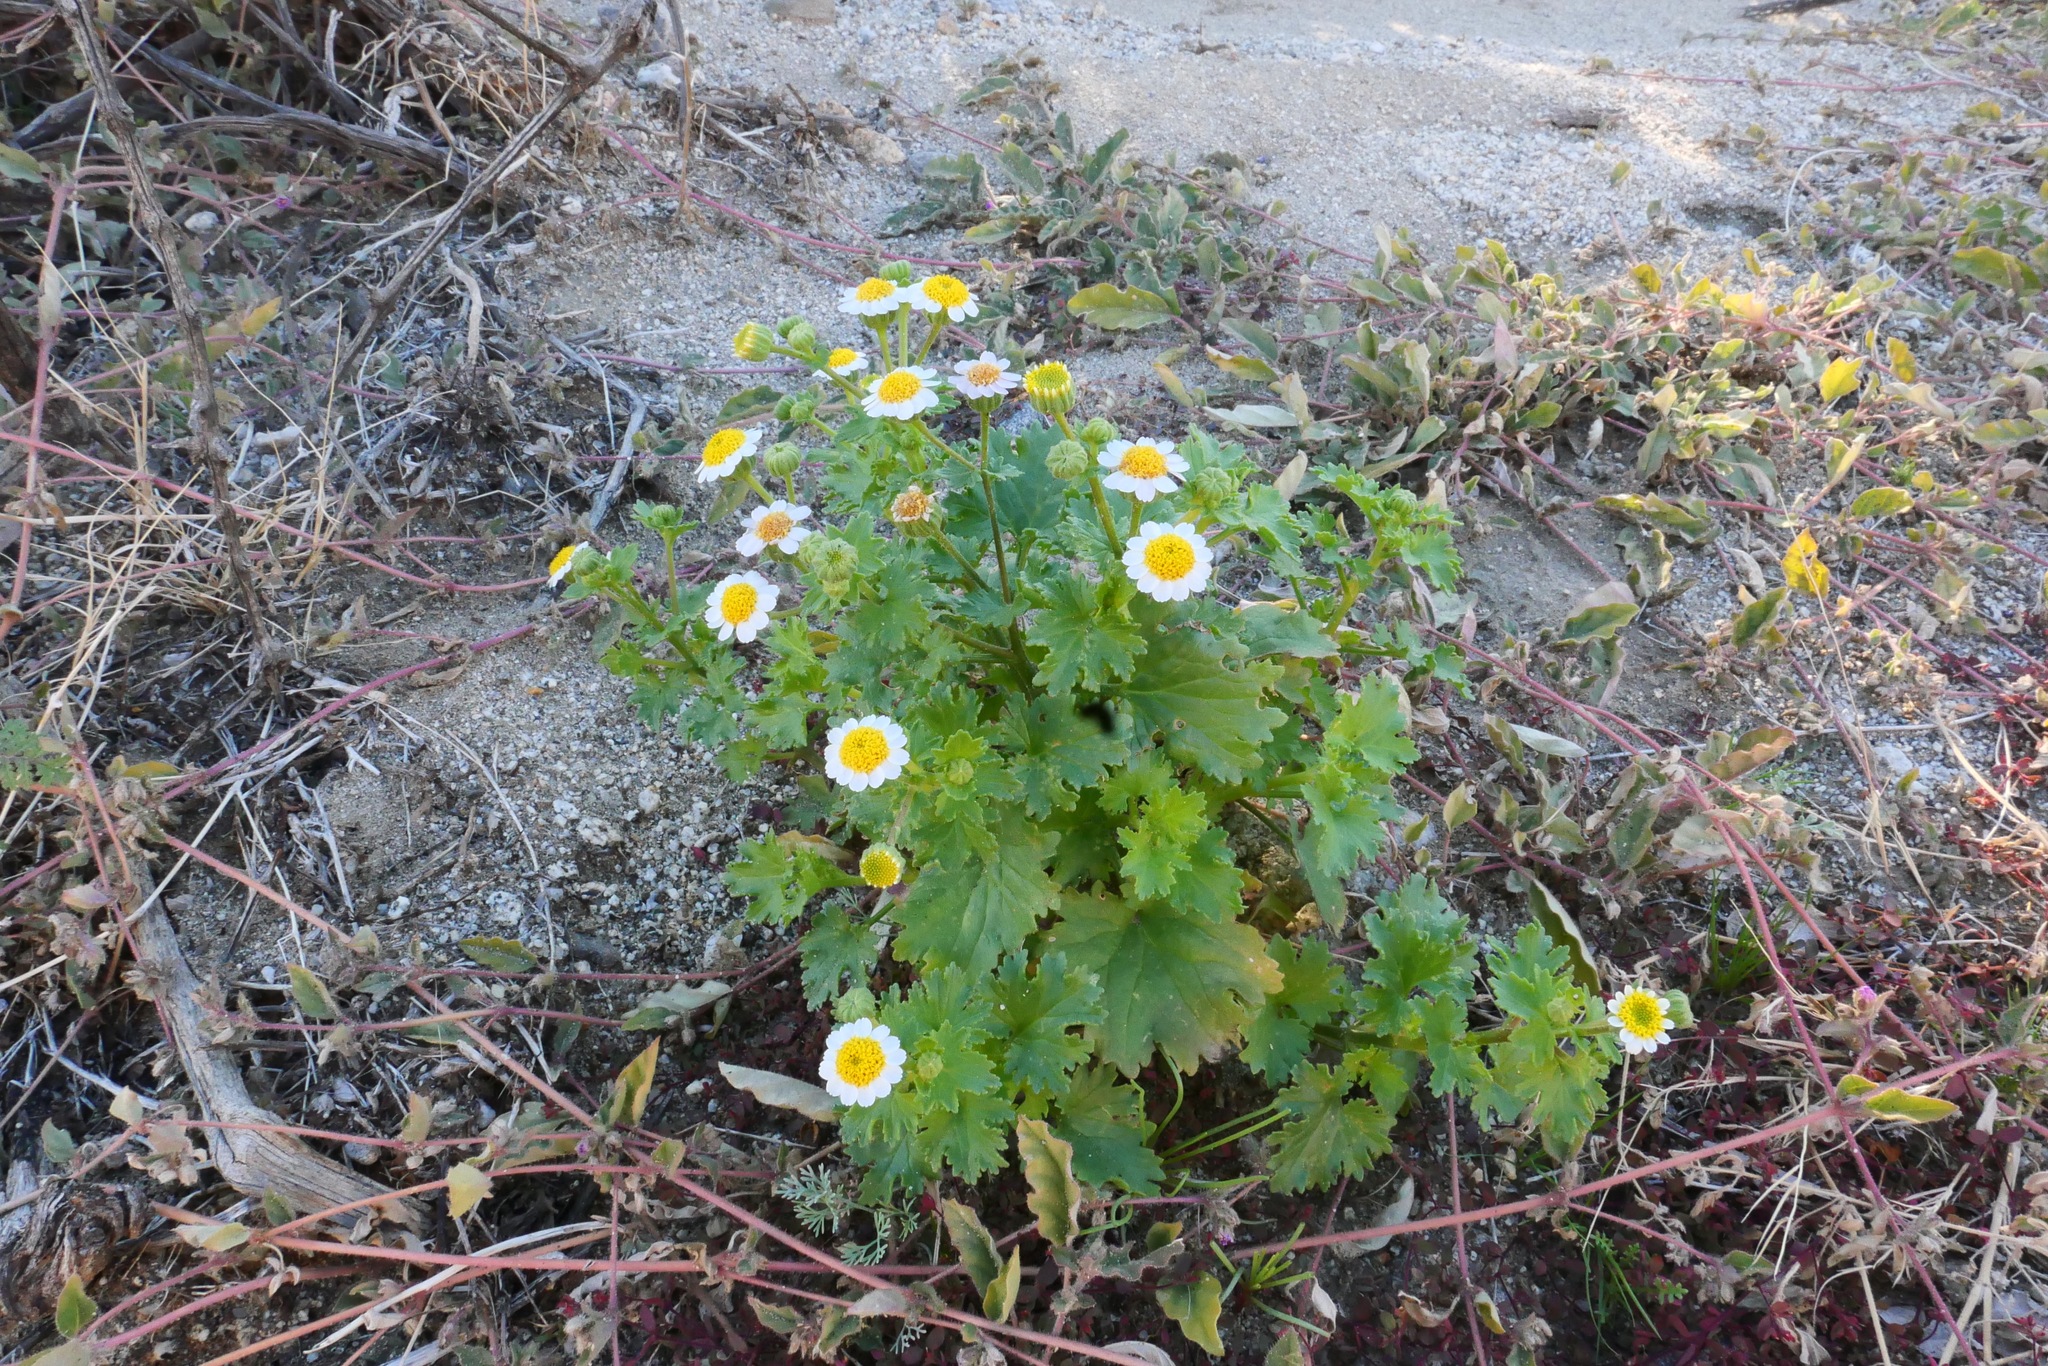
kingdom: Plantae
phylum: Tracheophyta
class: Magnoliopsida
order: Asterales
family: Asteraceae
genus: Laphamia
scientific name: Laphamia emoryi
